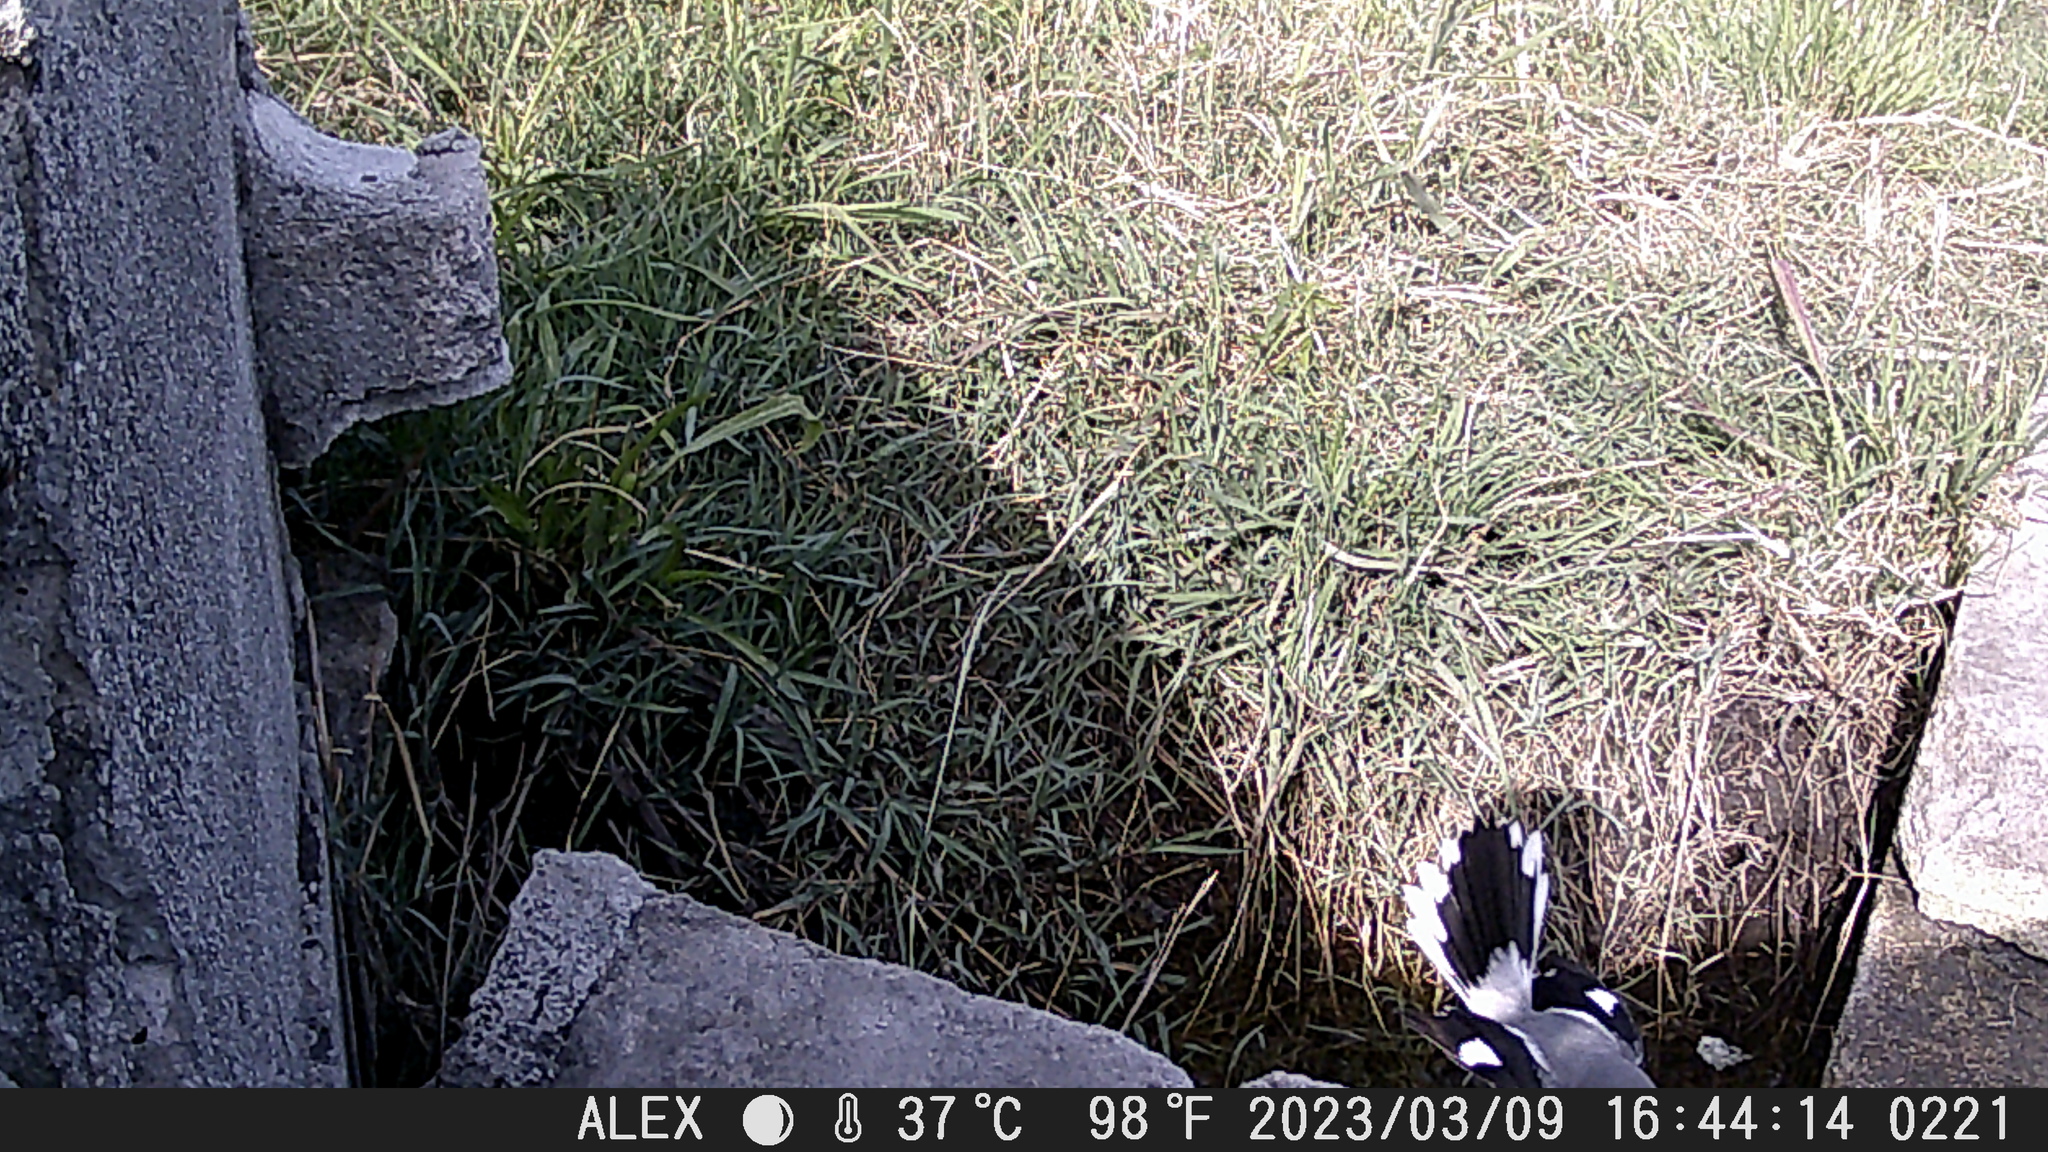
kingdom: Animalia
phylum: Chordata
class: Aves
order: Passeriformes
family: Laniidae
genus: Lanius
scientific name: Lanius ludovicianus
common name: Loggerhead shrike
